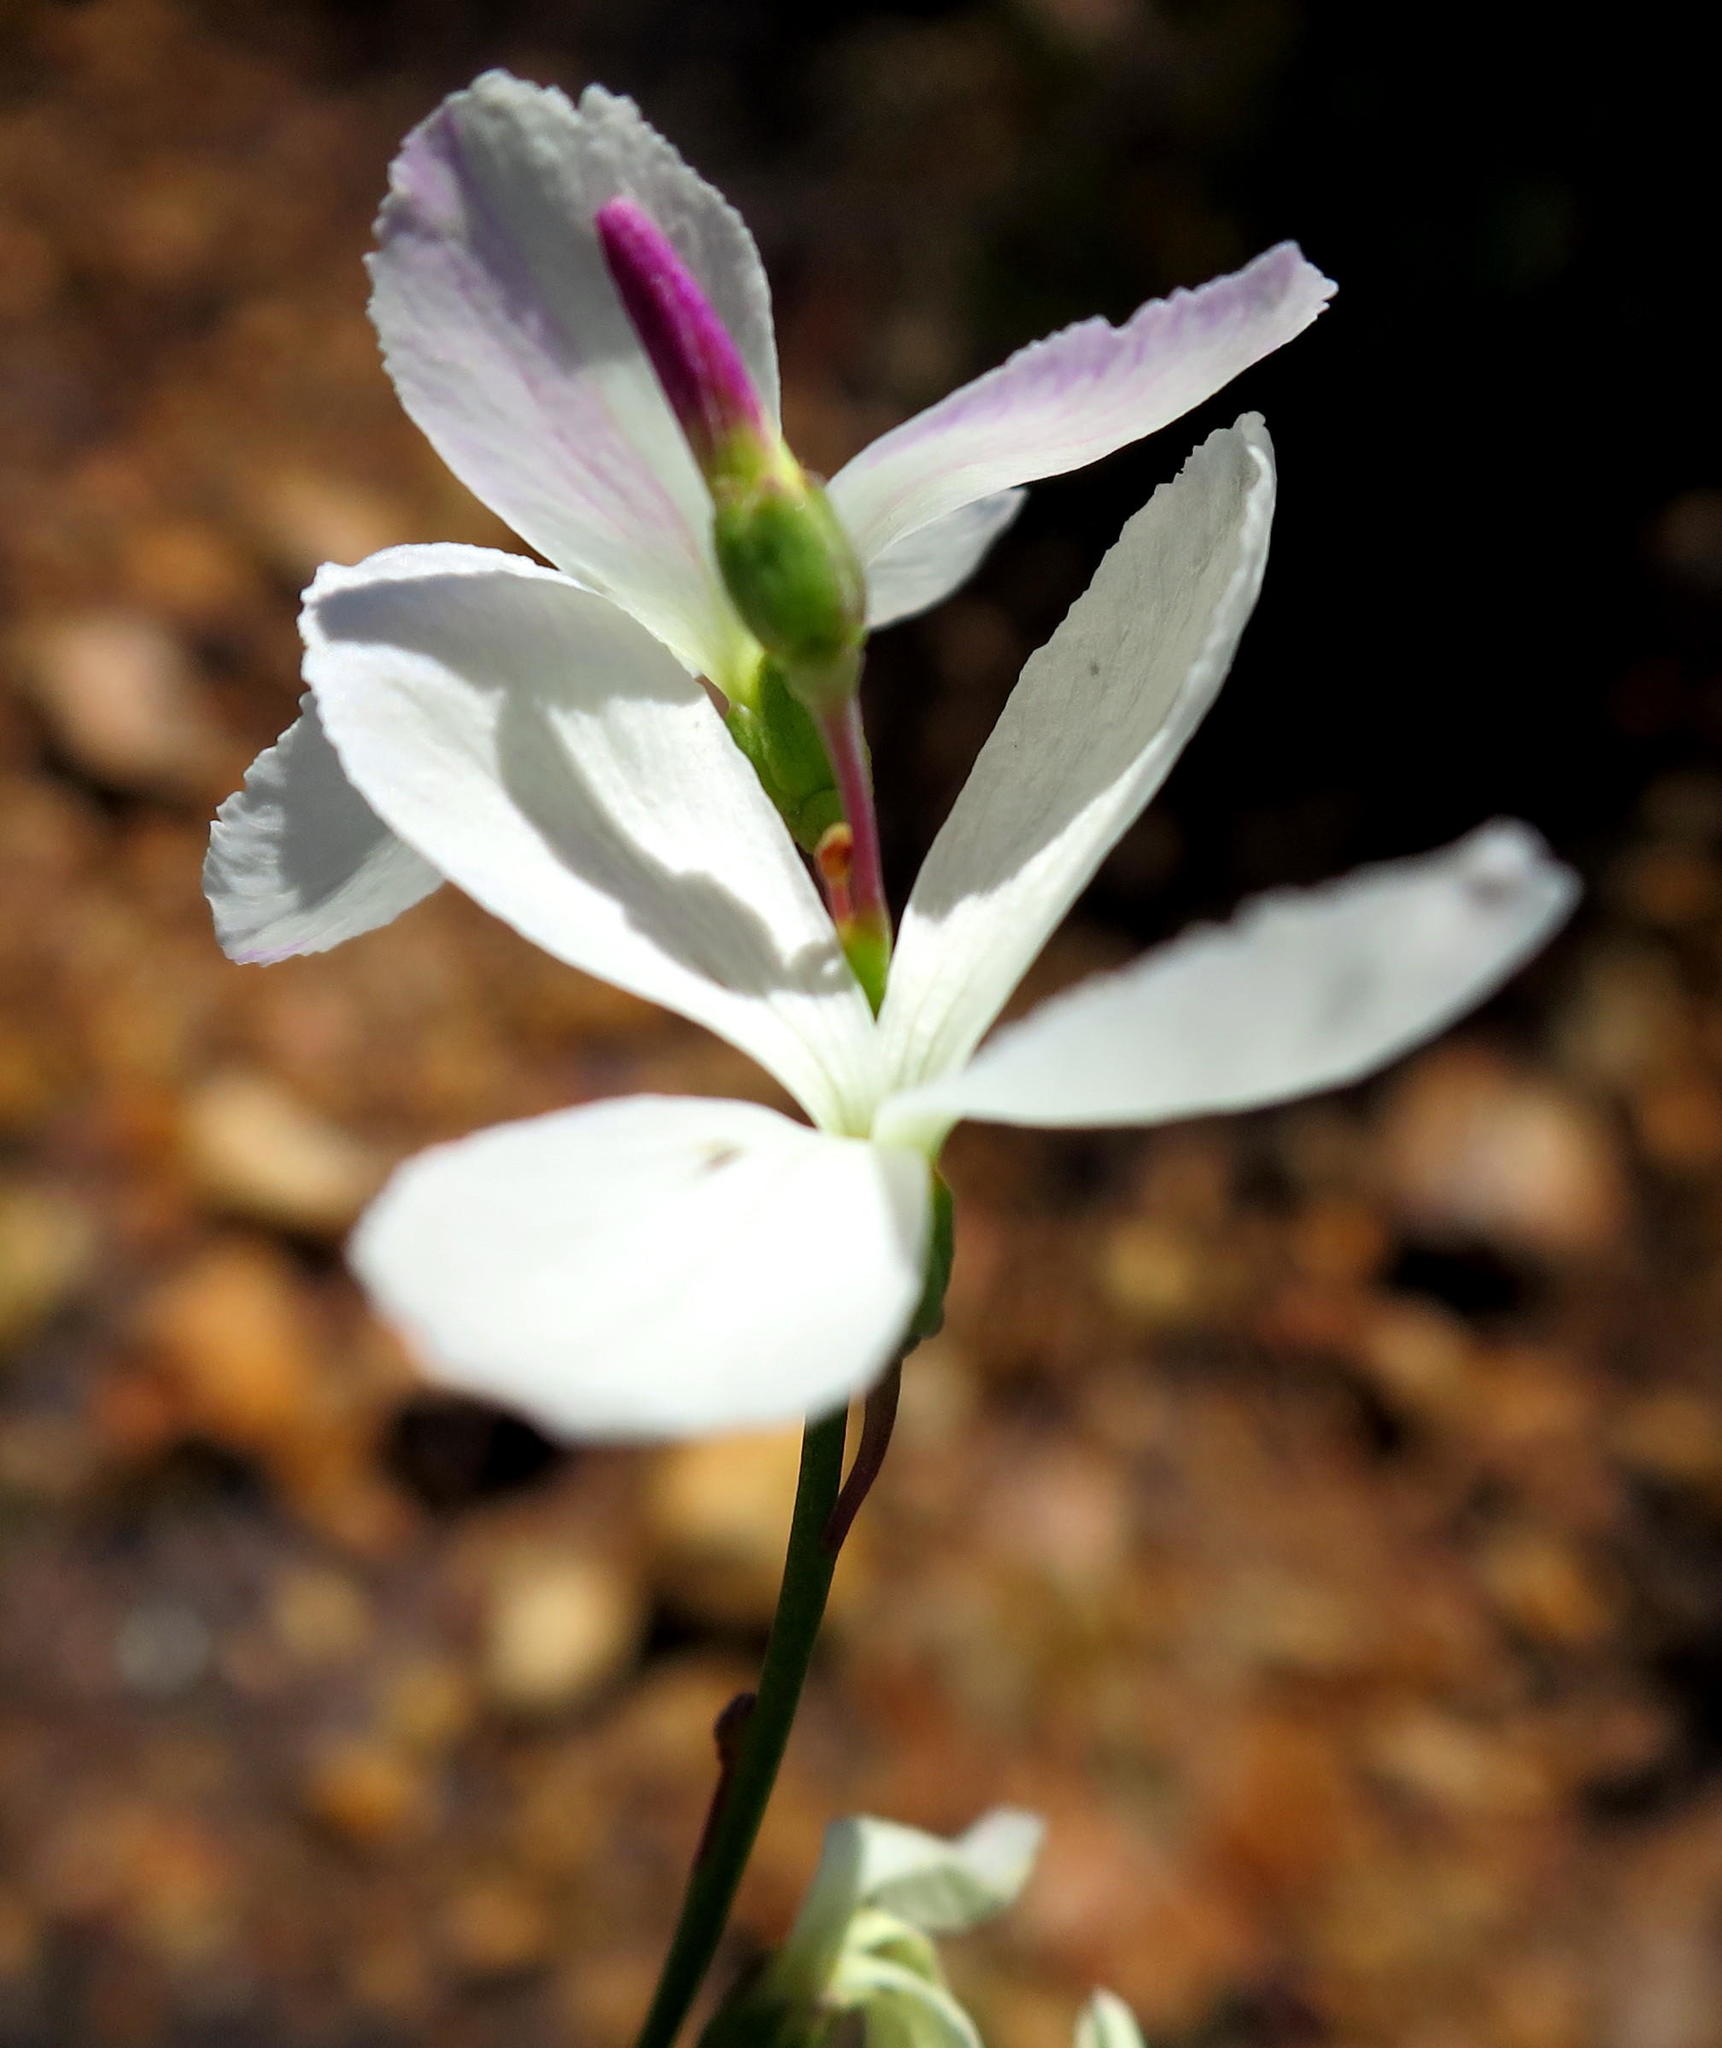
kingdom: Plantae
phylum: Tracheophyta
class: Magnoliopsida
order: Brassicales
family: Brassicaceae
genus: Heliophila
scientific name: Heliophila juncea
